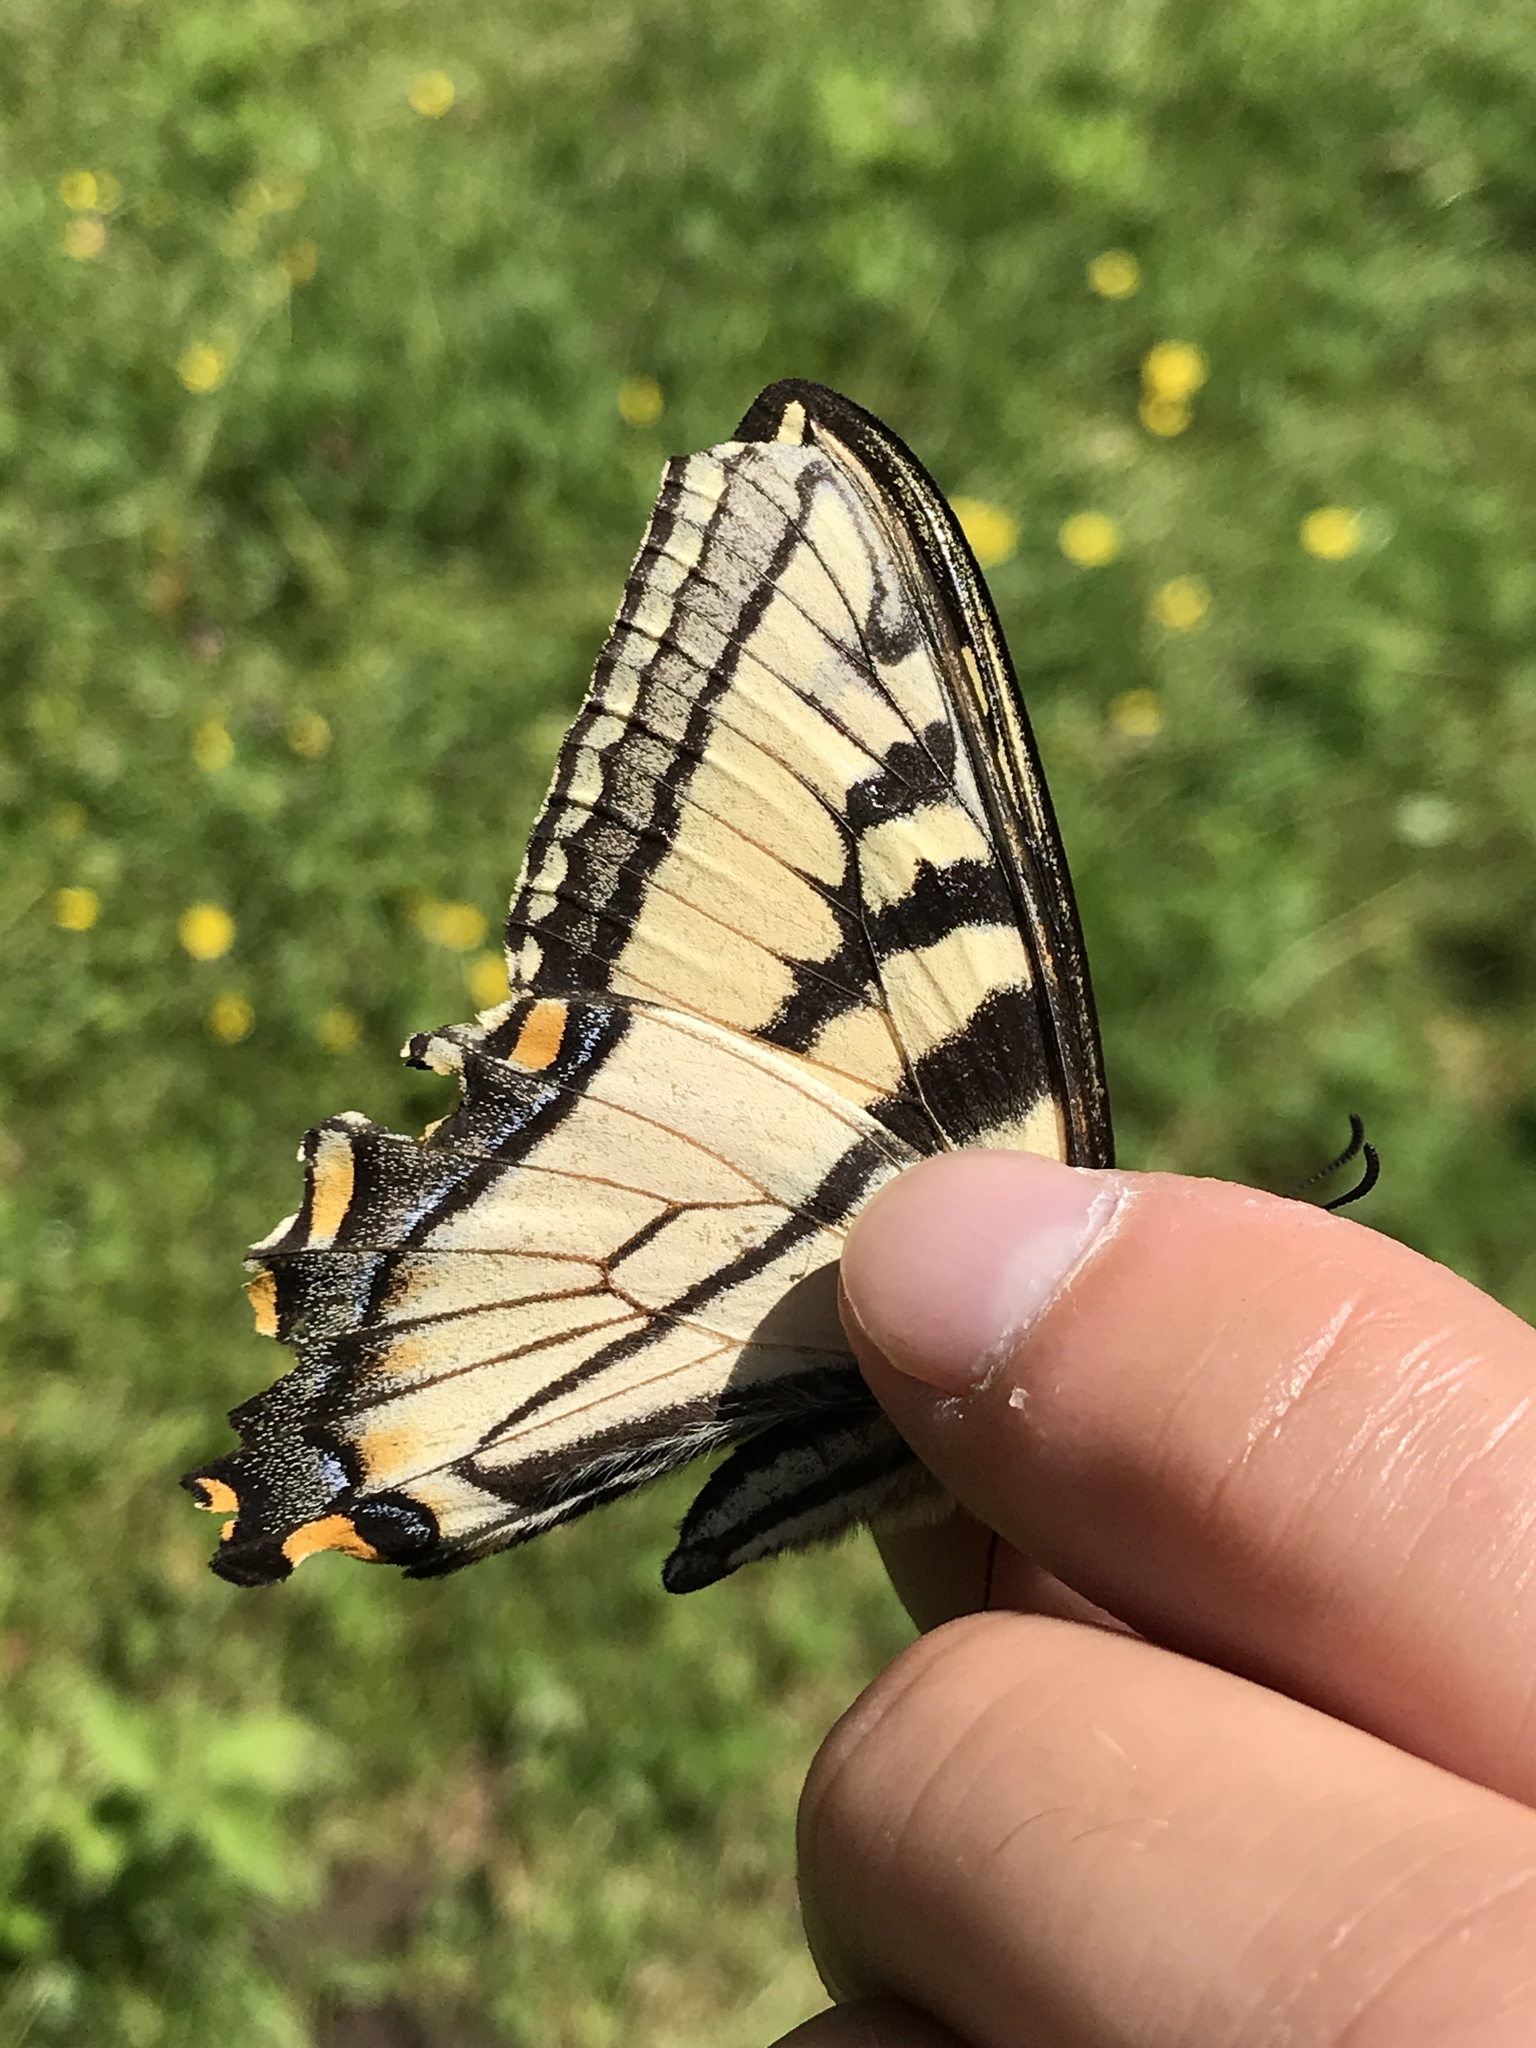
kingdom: Animalia
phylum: Arthropoda
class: Insecta
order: Lepidoptera
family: Papilionidae
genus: Papilio
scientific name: Papilio canadensis
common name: Canadian tiger swallowtail
